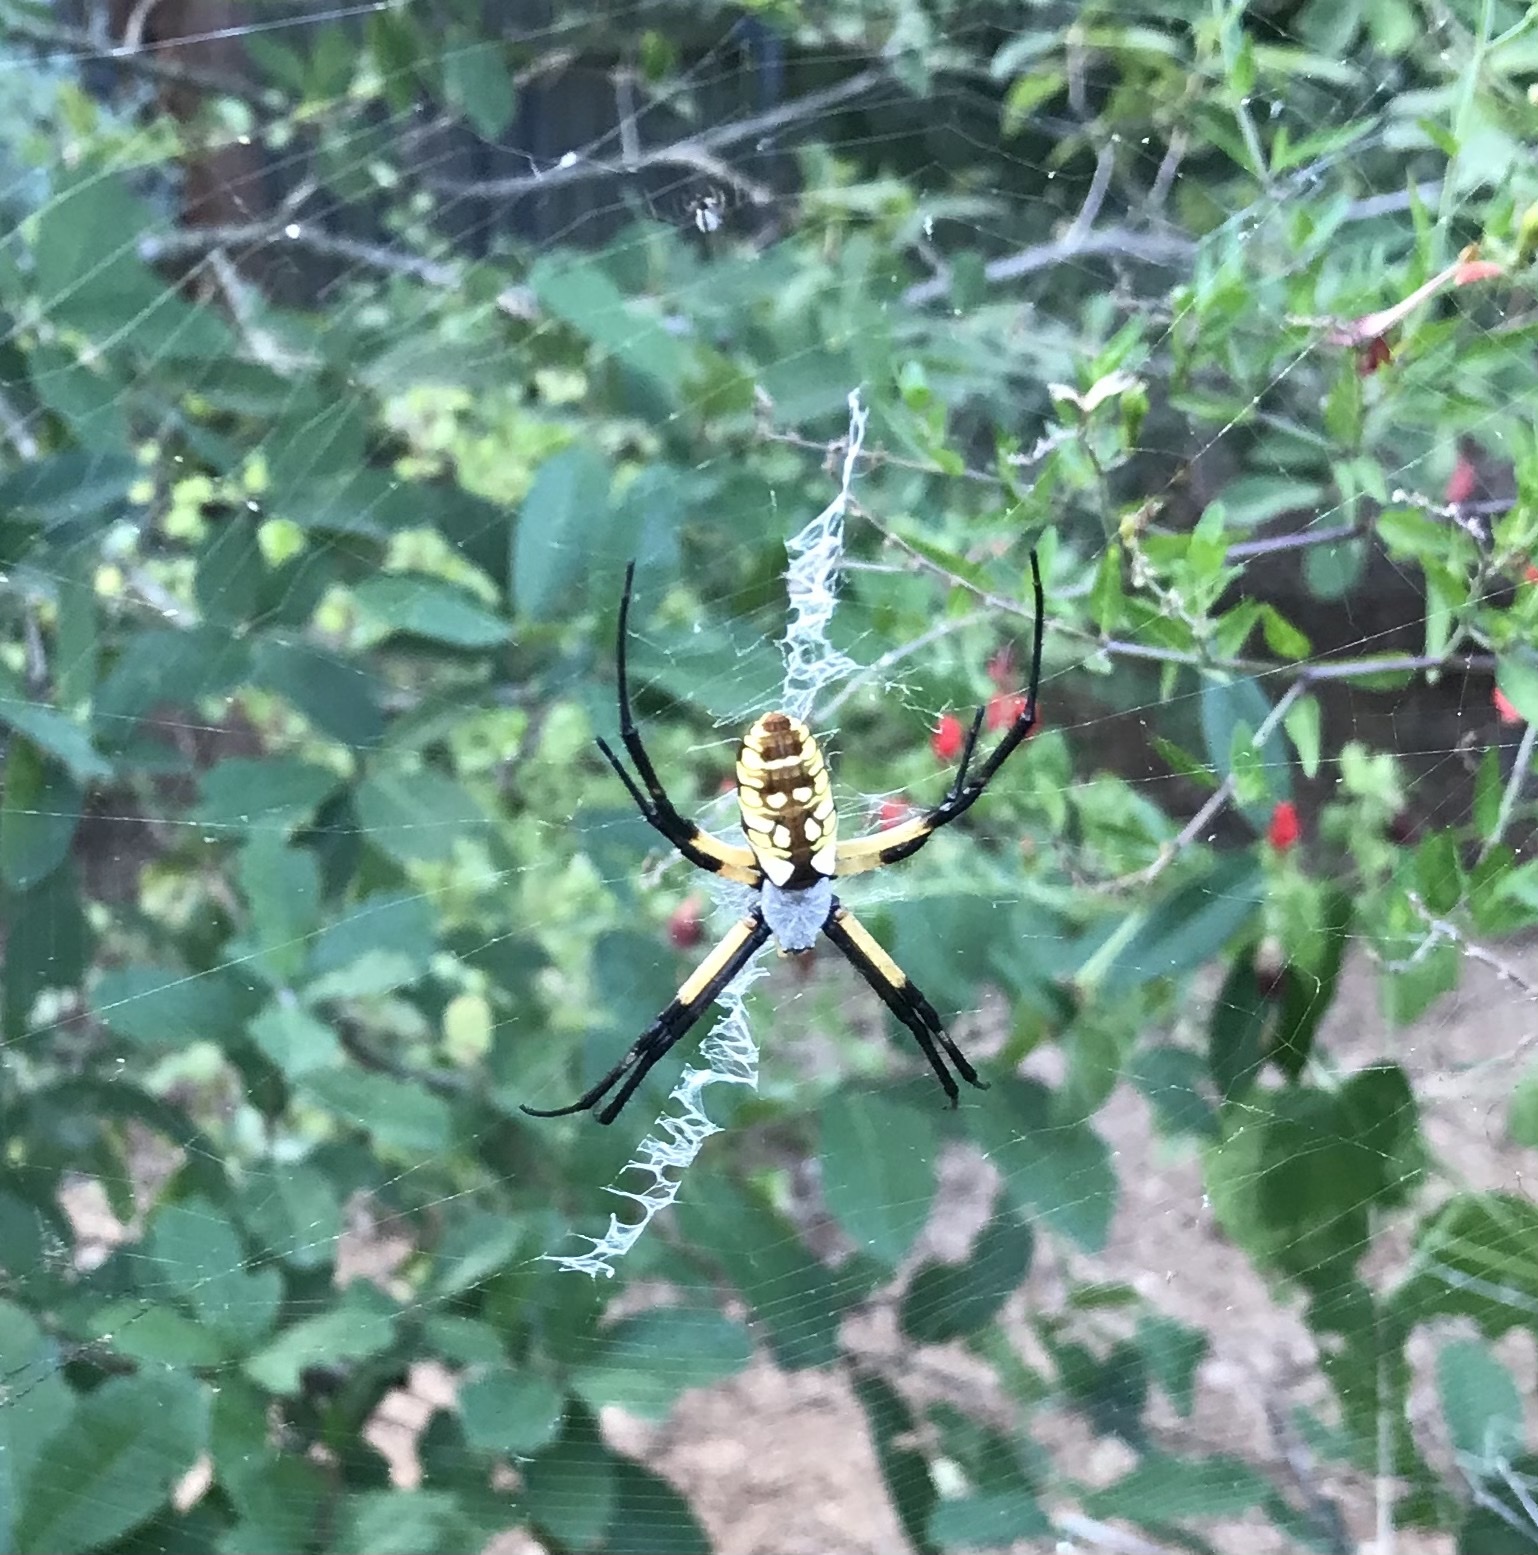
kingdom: Animalia
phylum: Arthropoda
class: Arachnida
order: Araneae
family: Araneidae
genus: Argiope
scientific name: Argiope aurantia
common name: Orb weavers
